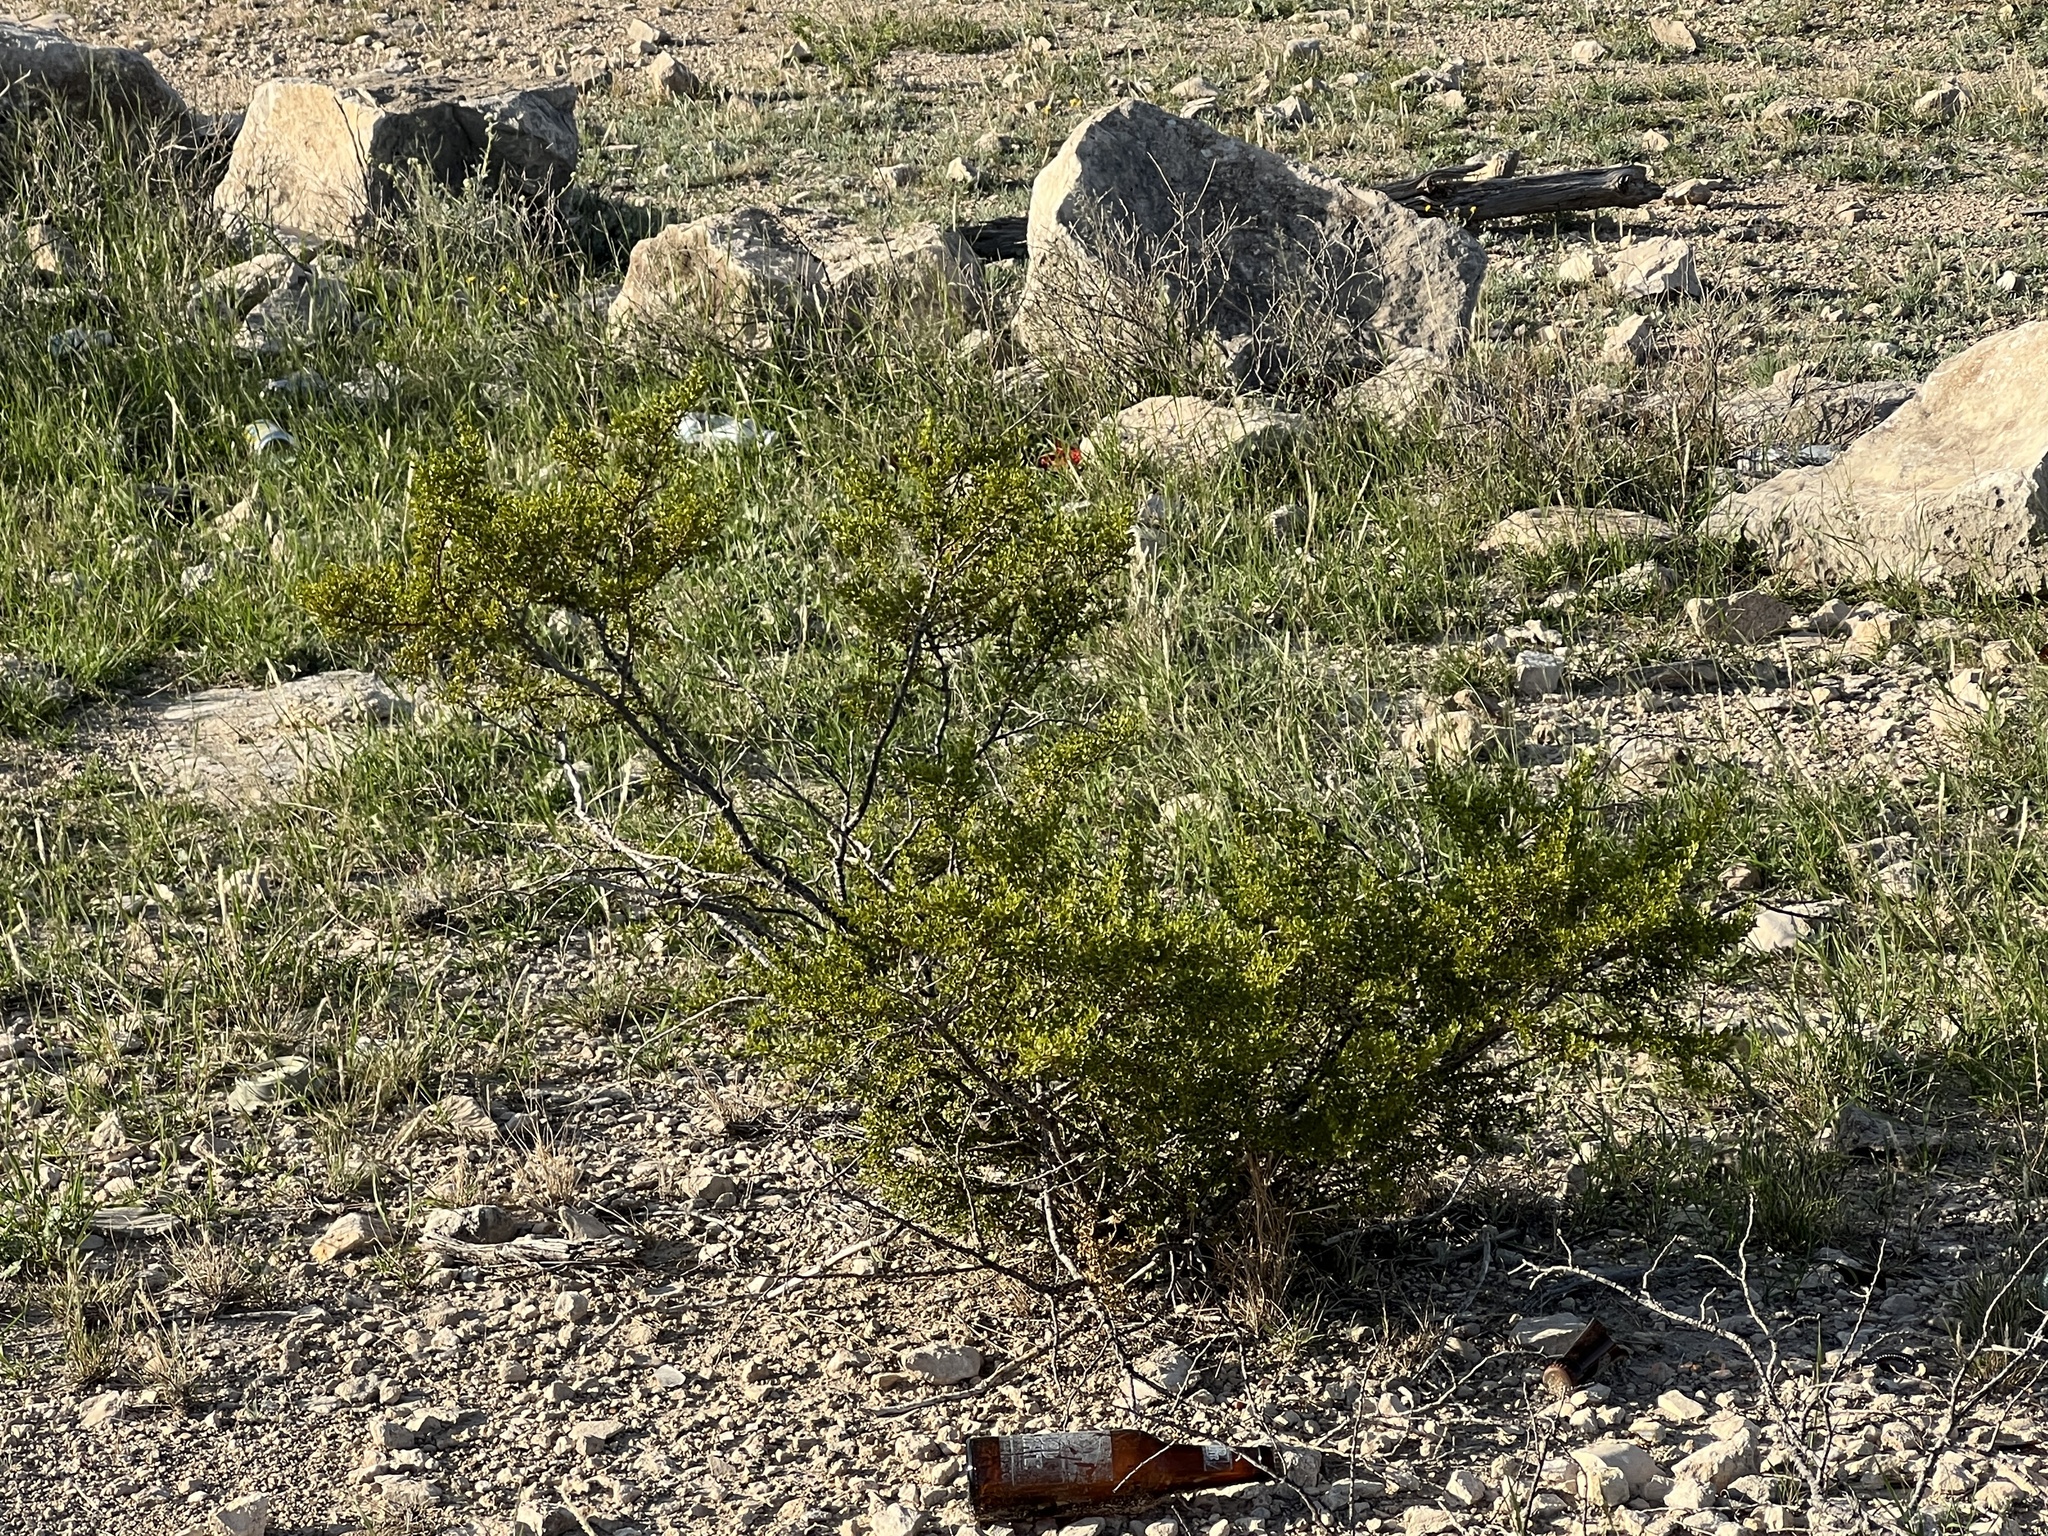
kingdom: Plantae
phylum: Tracheophyta
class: Magnoliopsida
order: Zygophyllales
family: Zygophyllaceae
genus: Larrea
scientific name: Larrea tridentata
